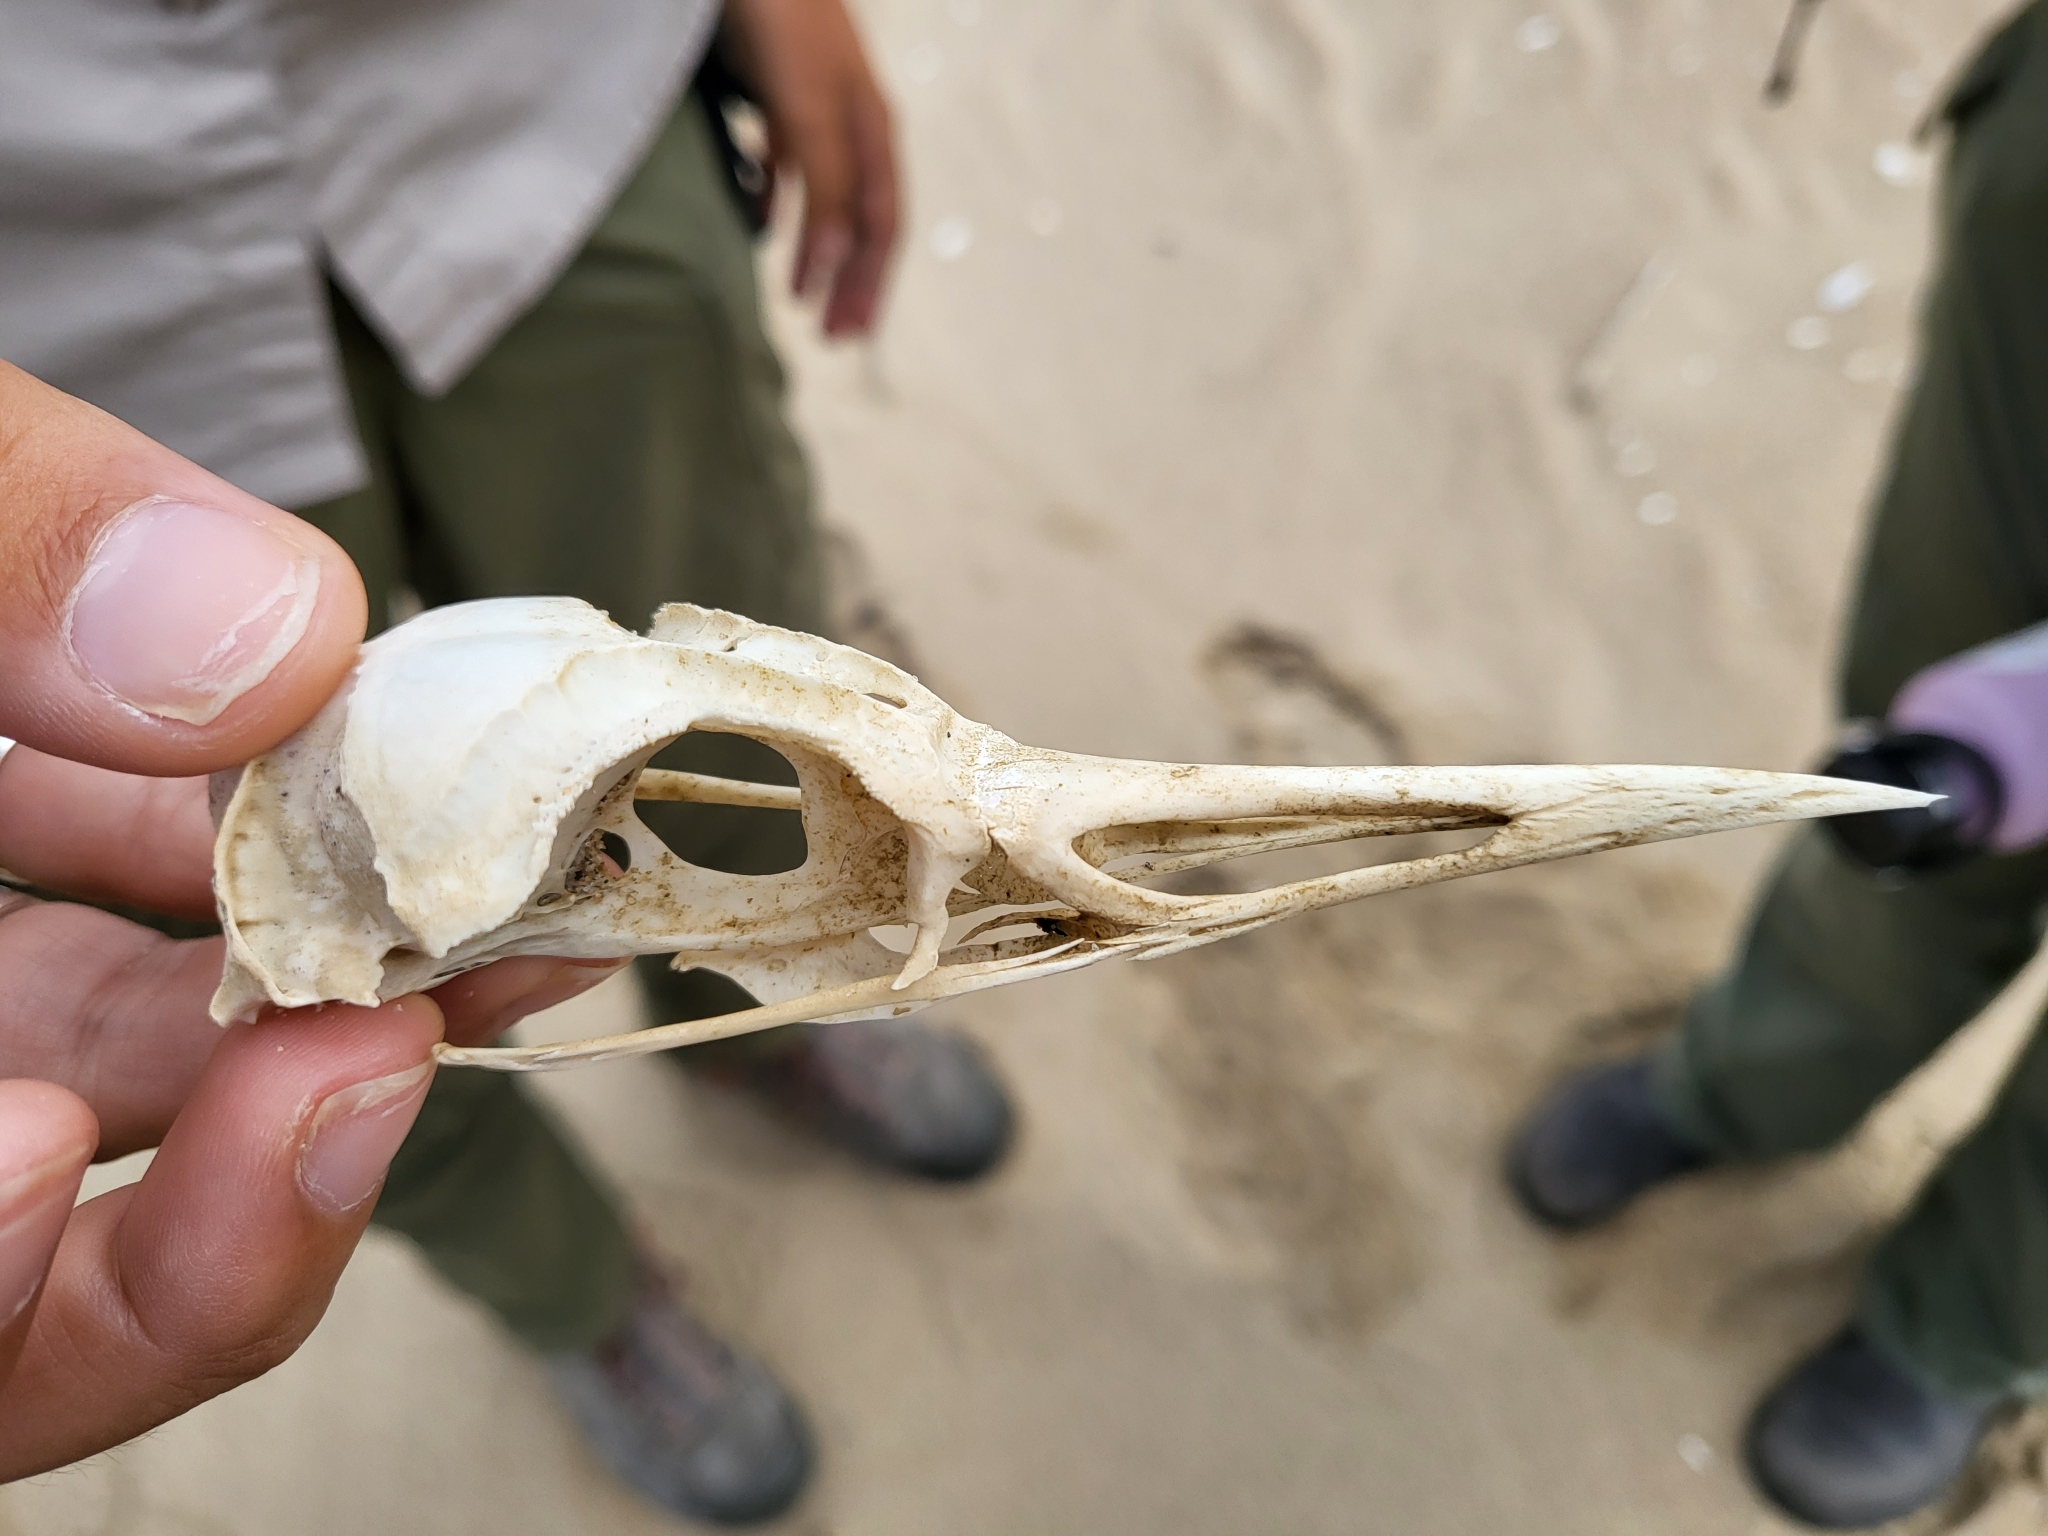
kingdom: Animalia
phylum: Chordata
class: Aves
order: Gaviiformes
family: Gaviidae
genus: Gavia
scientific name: Gavia stellata
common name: Red-throated loon
